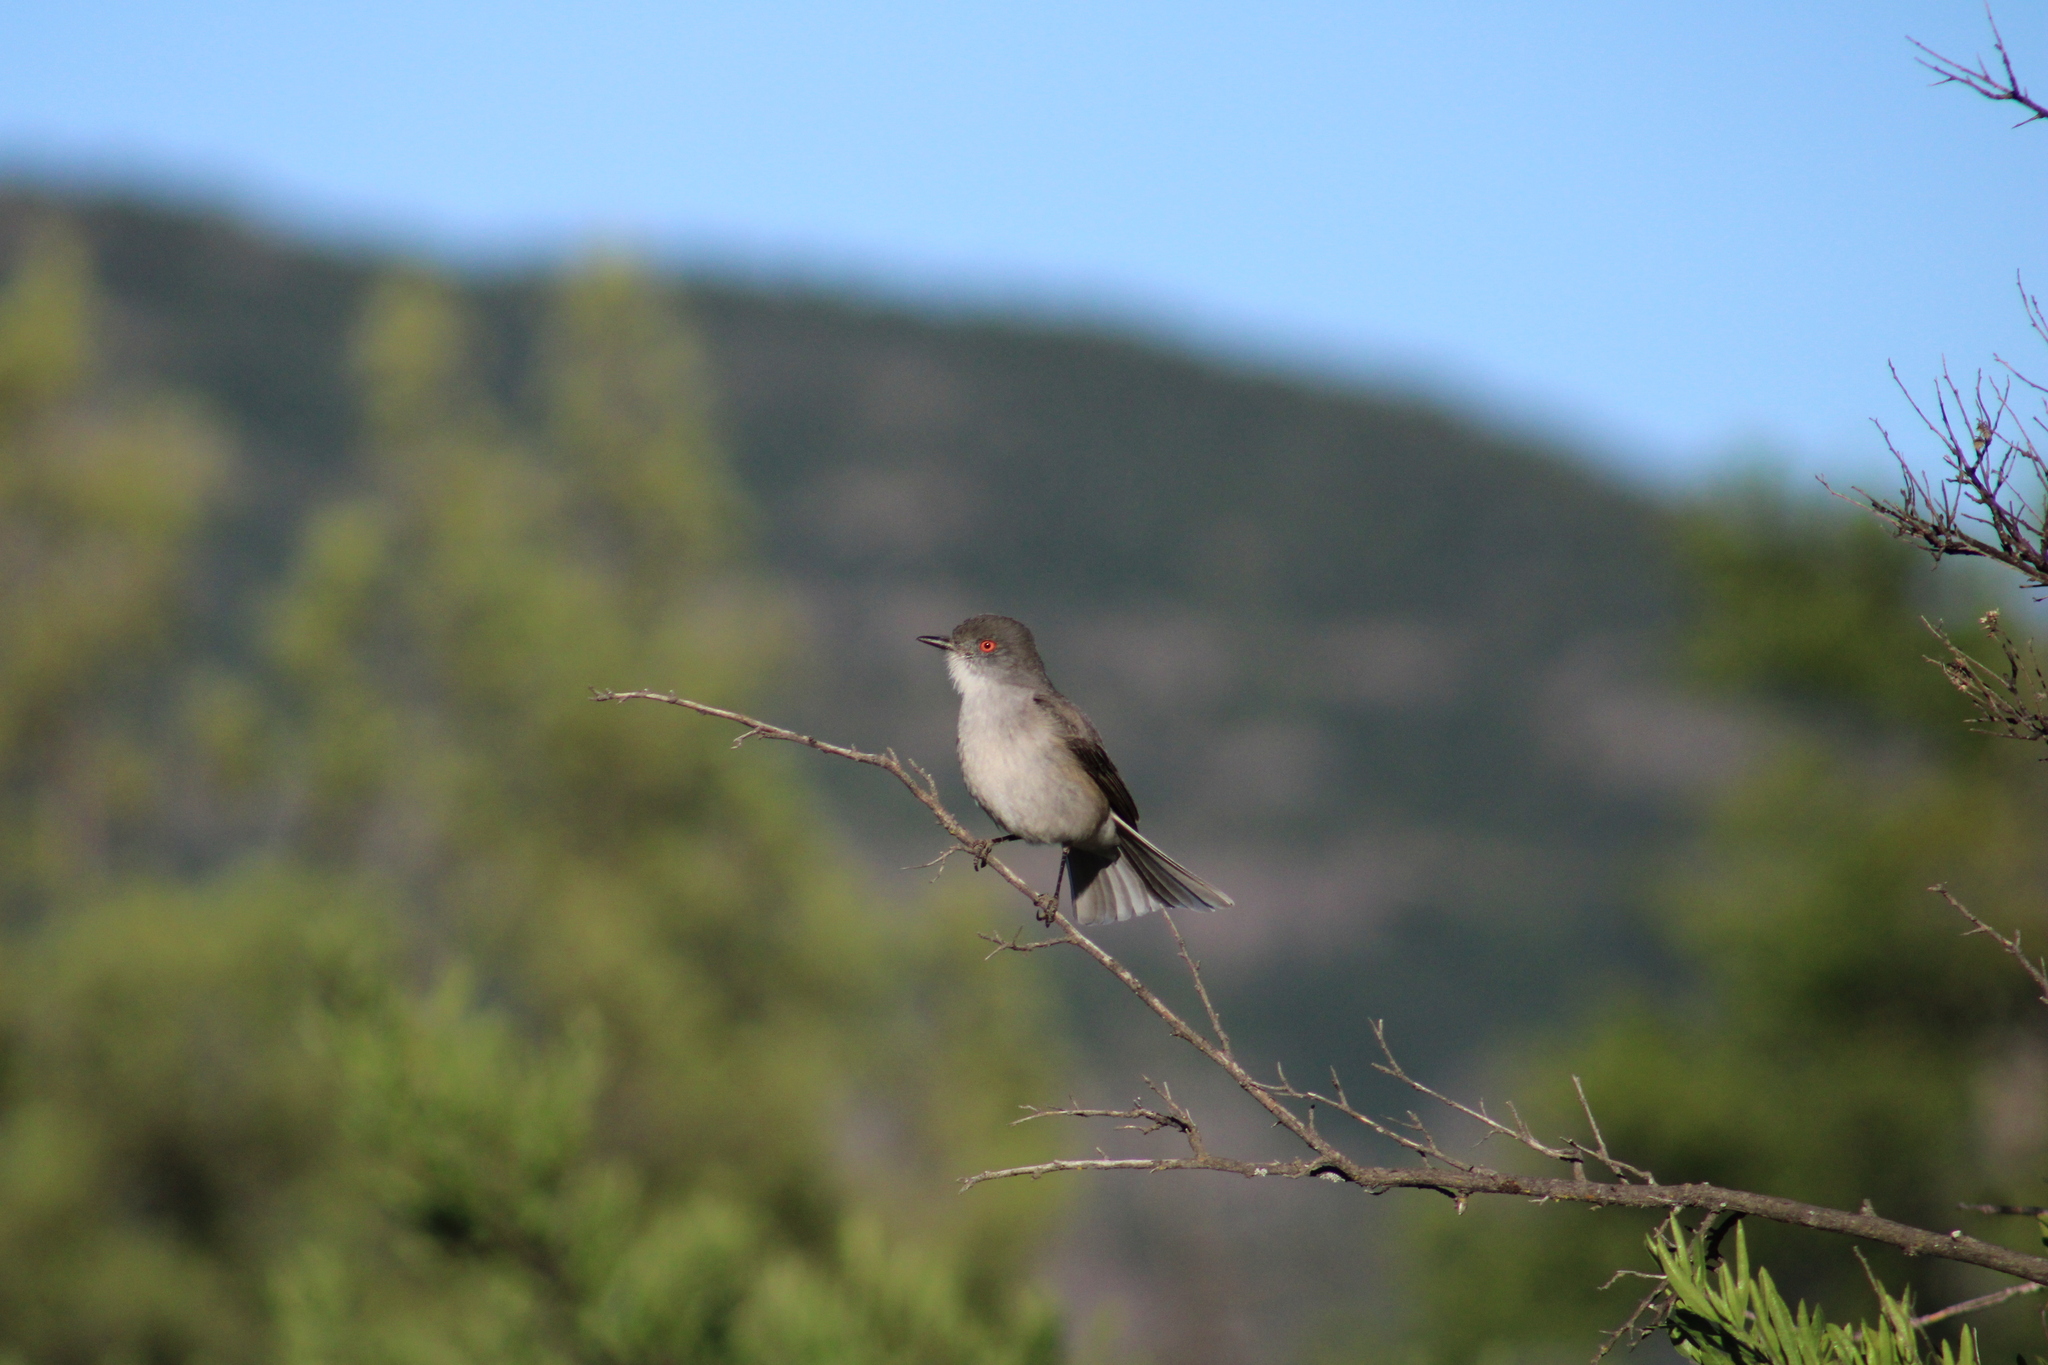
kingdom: Animalia
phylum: Chordata
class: Aves
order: Passeriformes
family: Tyrannidae
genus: Xolmis
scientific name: Xolmis pyrope
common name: Fire-eyed diucon
